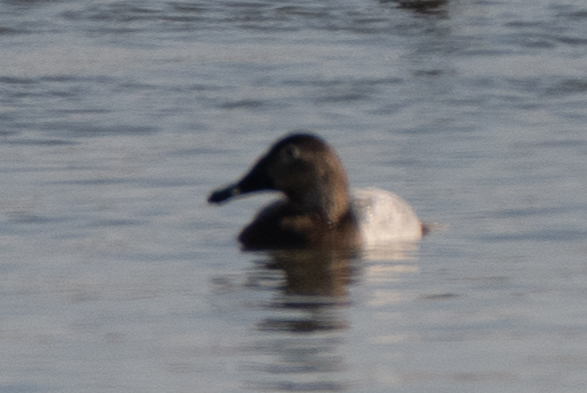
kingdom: Animalia
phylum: Chordata
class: Aves
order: Anseriformes
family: Anatidae
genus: Aythya
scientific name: Aythya valisineria
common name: Canvasback
